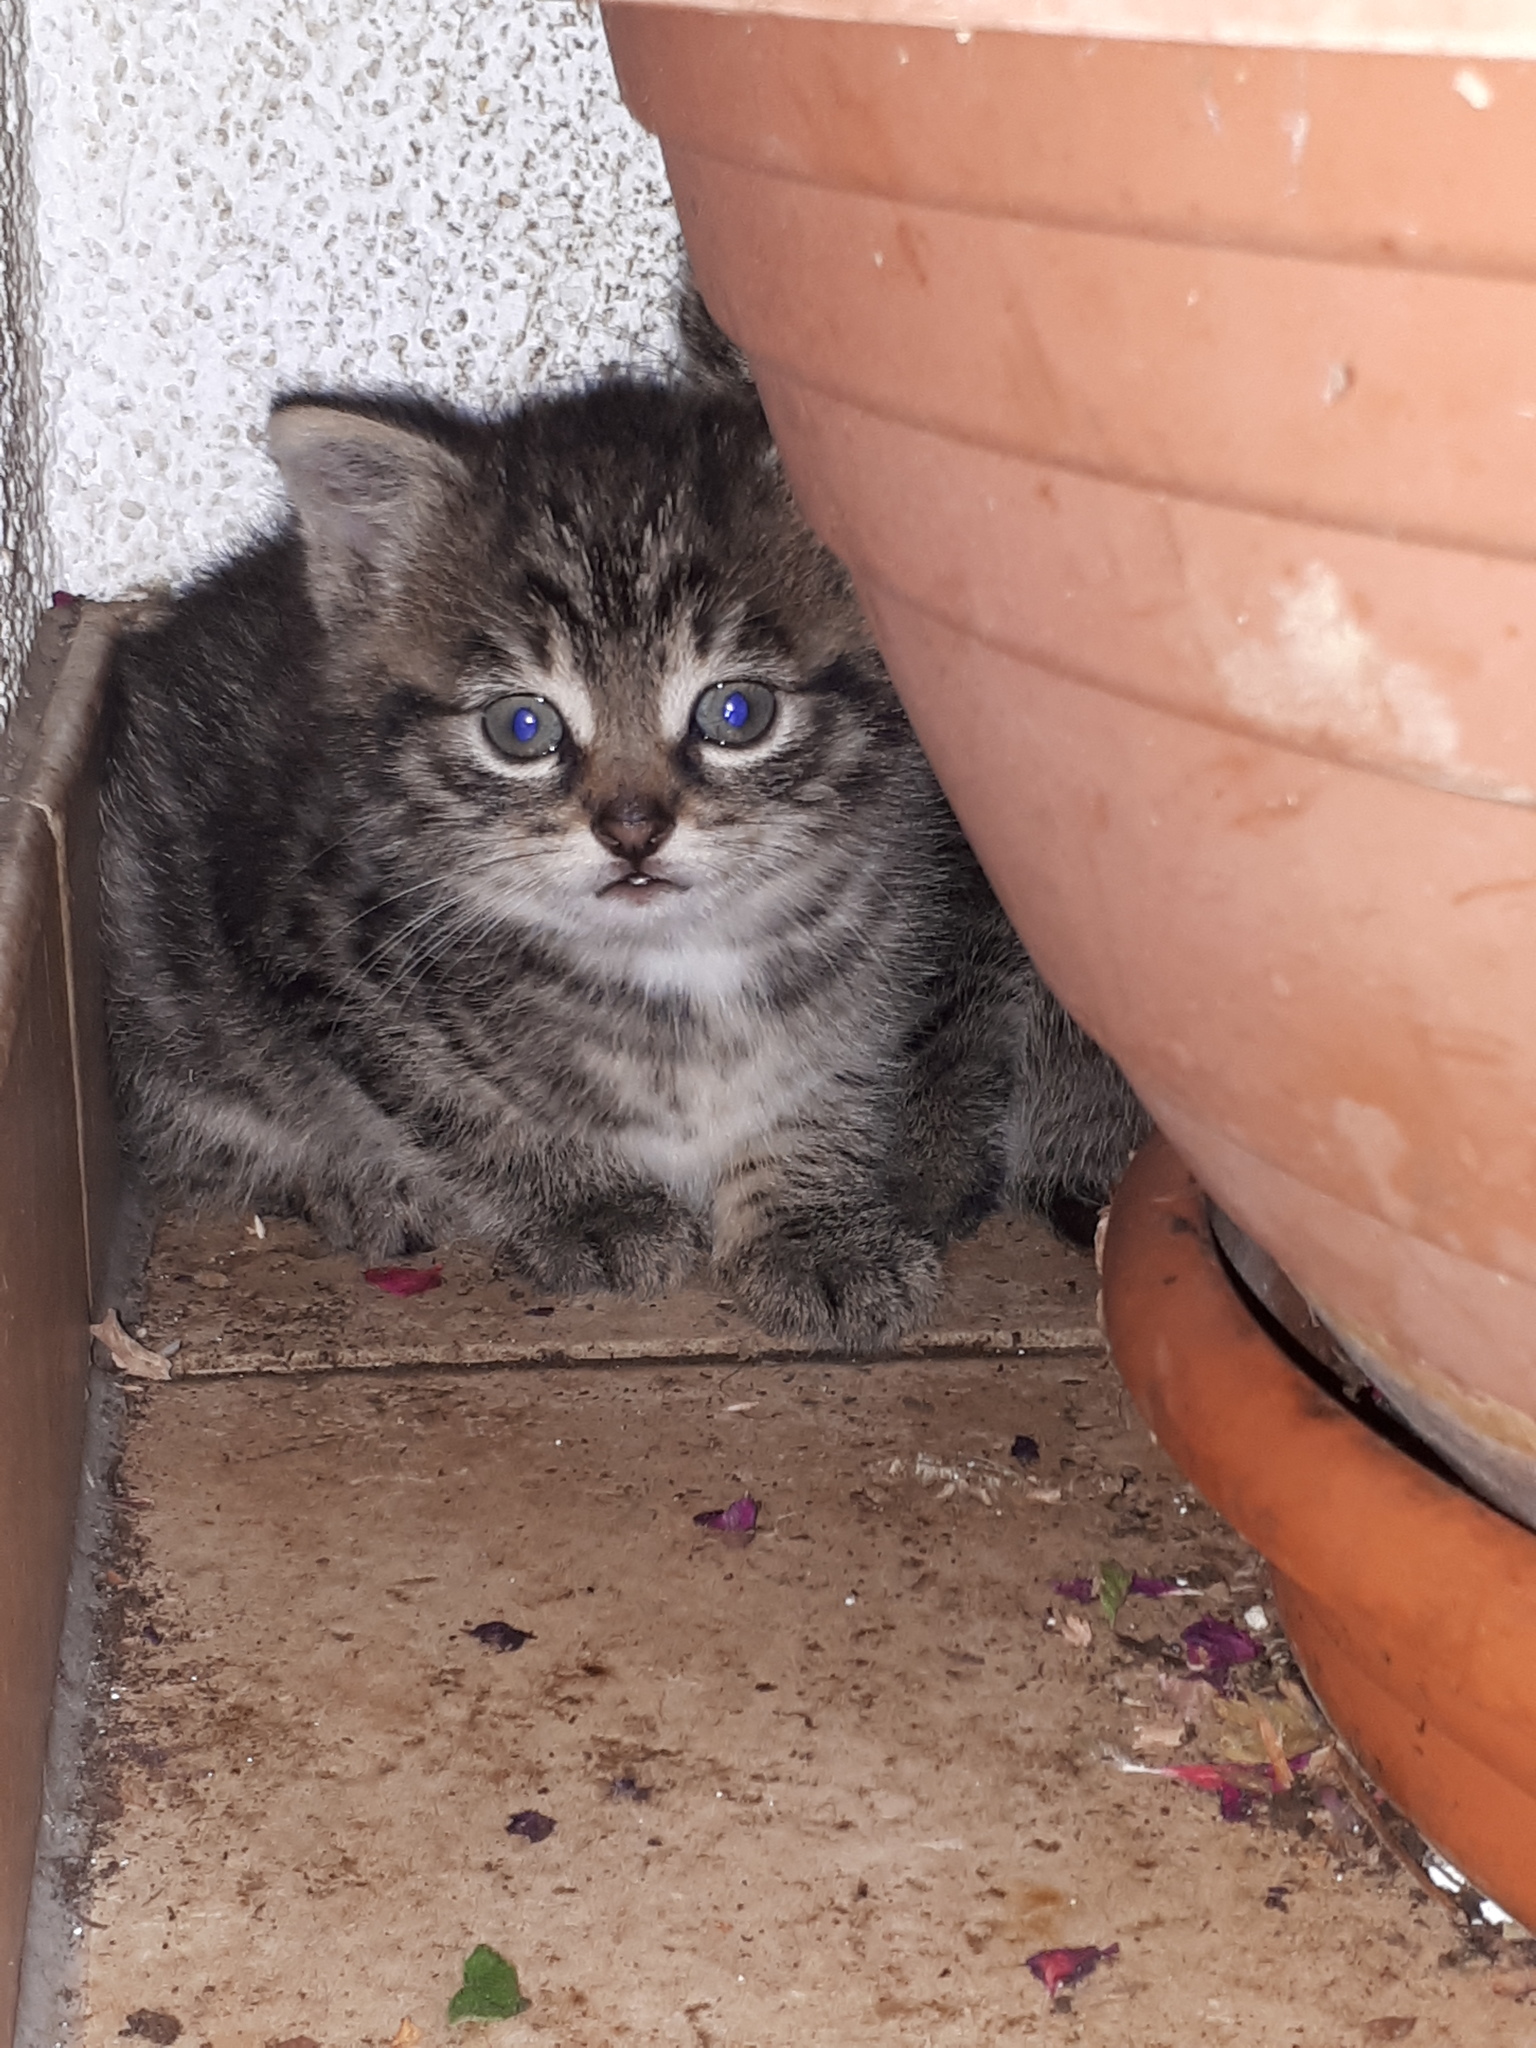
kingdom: Animalia
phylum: Chordata
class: Mammalia
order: Carnivora
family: Felidae
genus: Felis
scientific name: Felis catus
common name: Domestic cat
